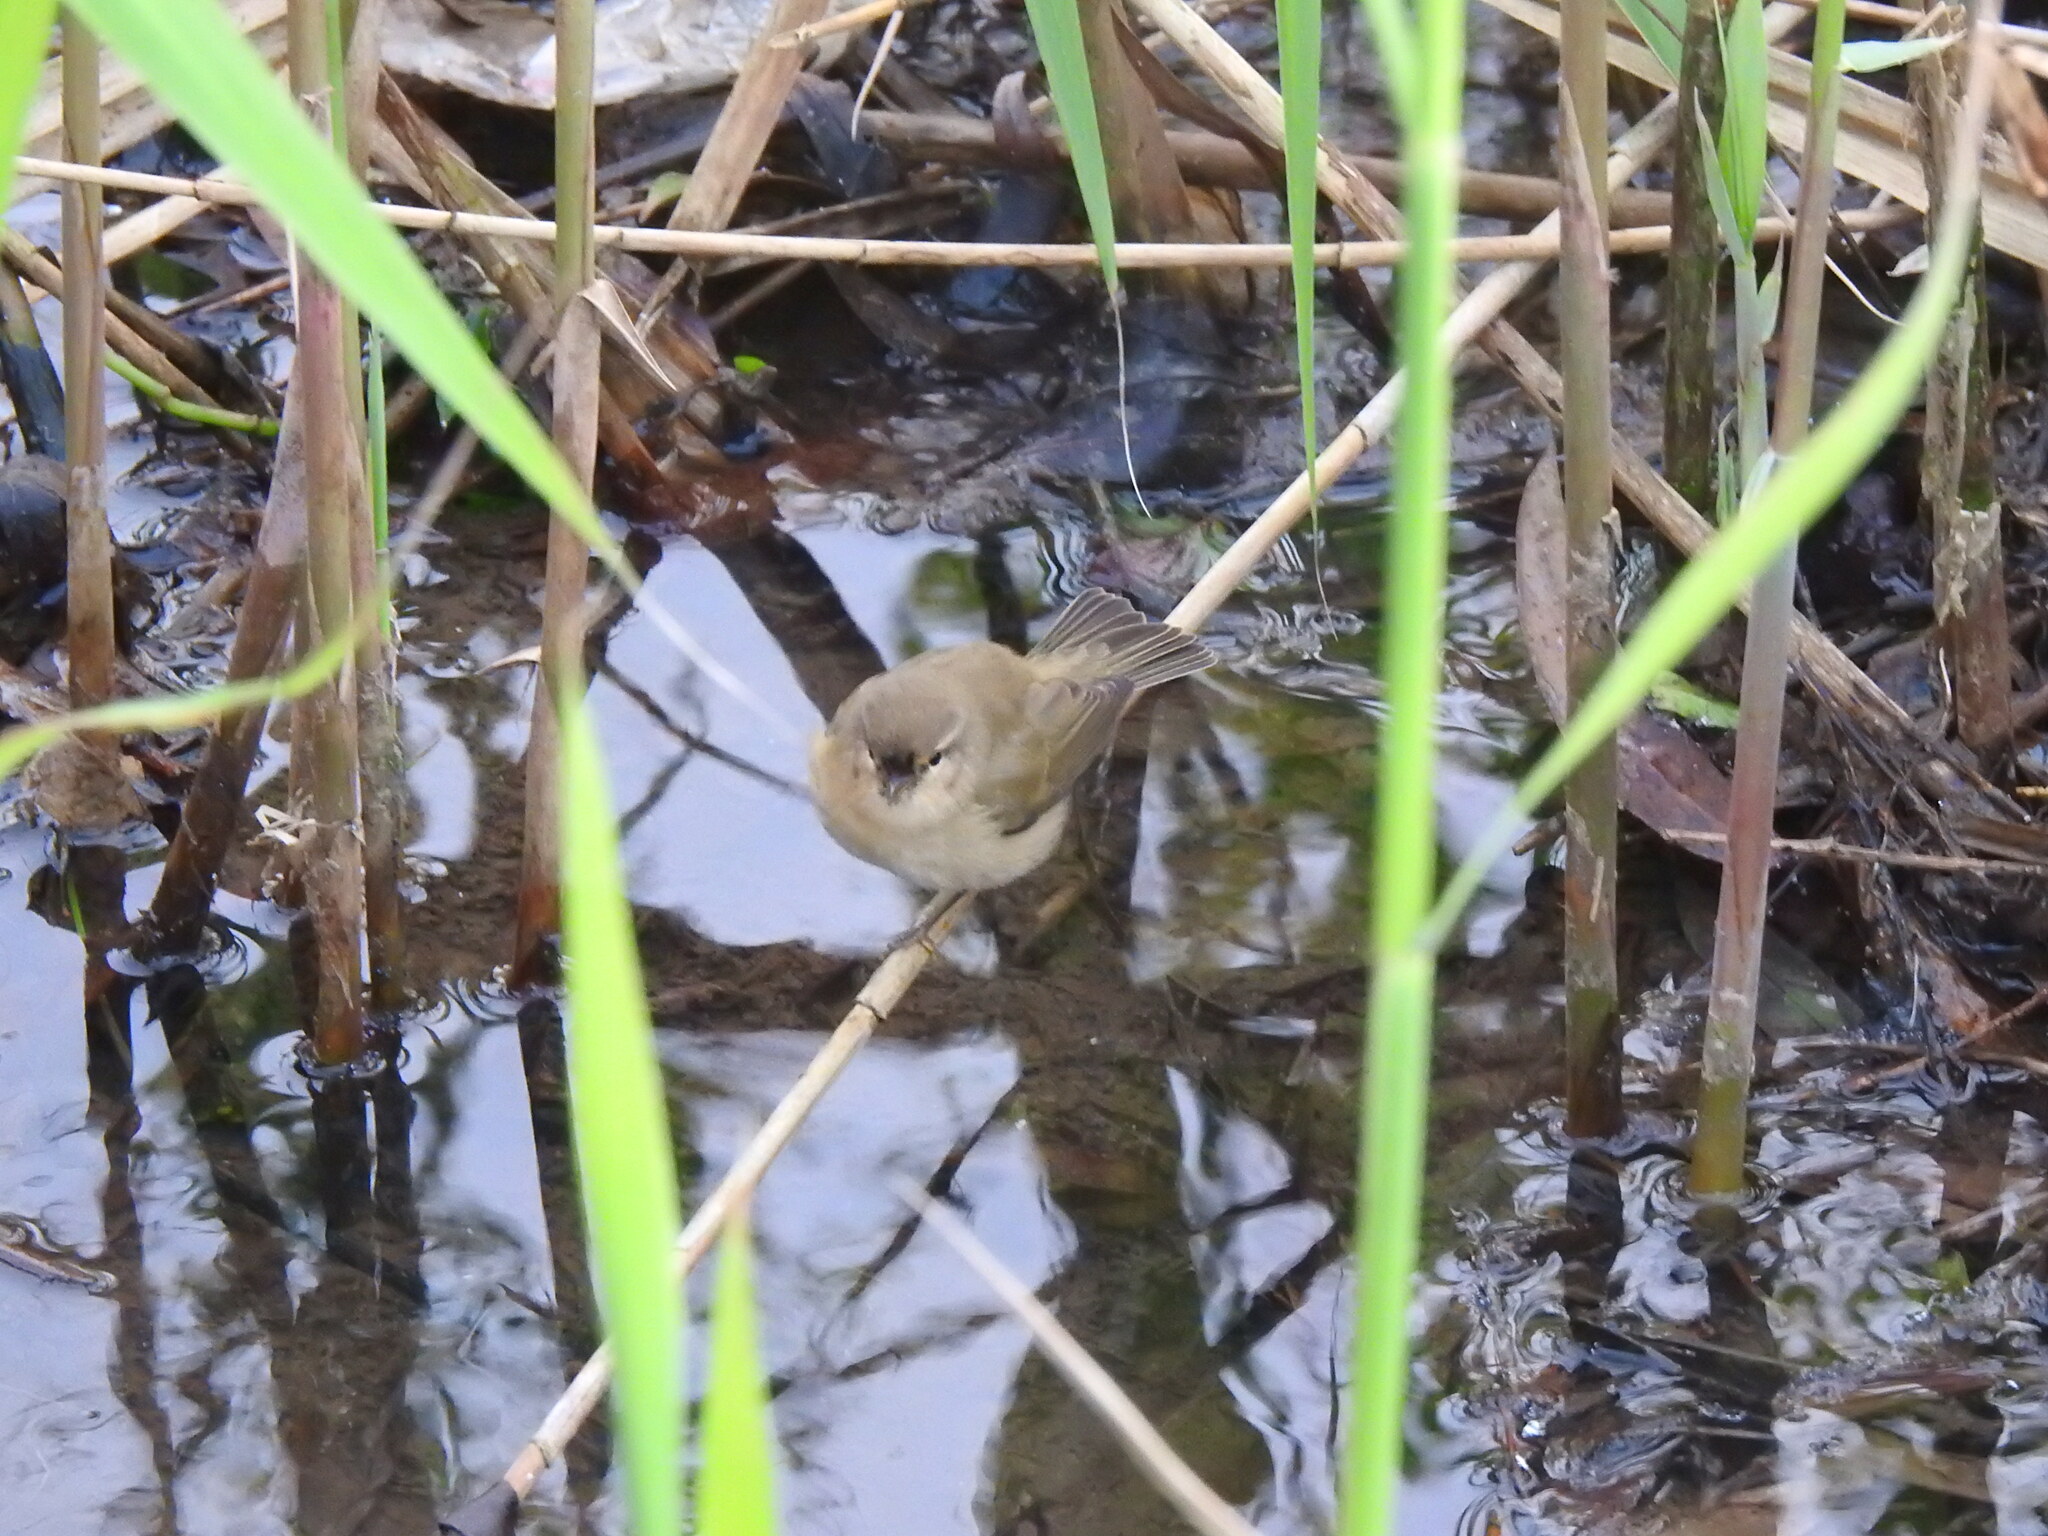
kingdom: Animalia
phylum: Chordata
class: Aves
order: Passeriformes
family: Phylloscopidae
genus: Phylloscopus
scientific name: Phylloscopus collybita
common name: Common chiffchaff
